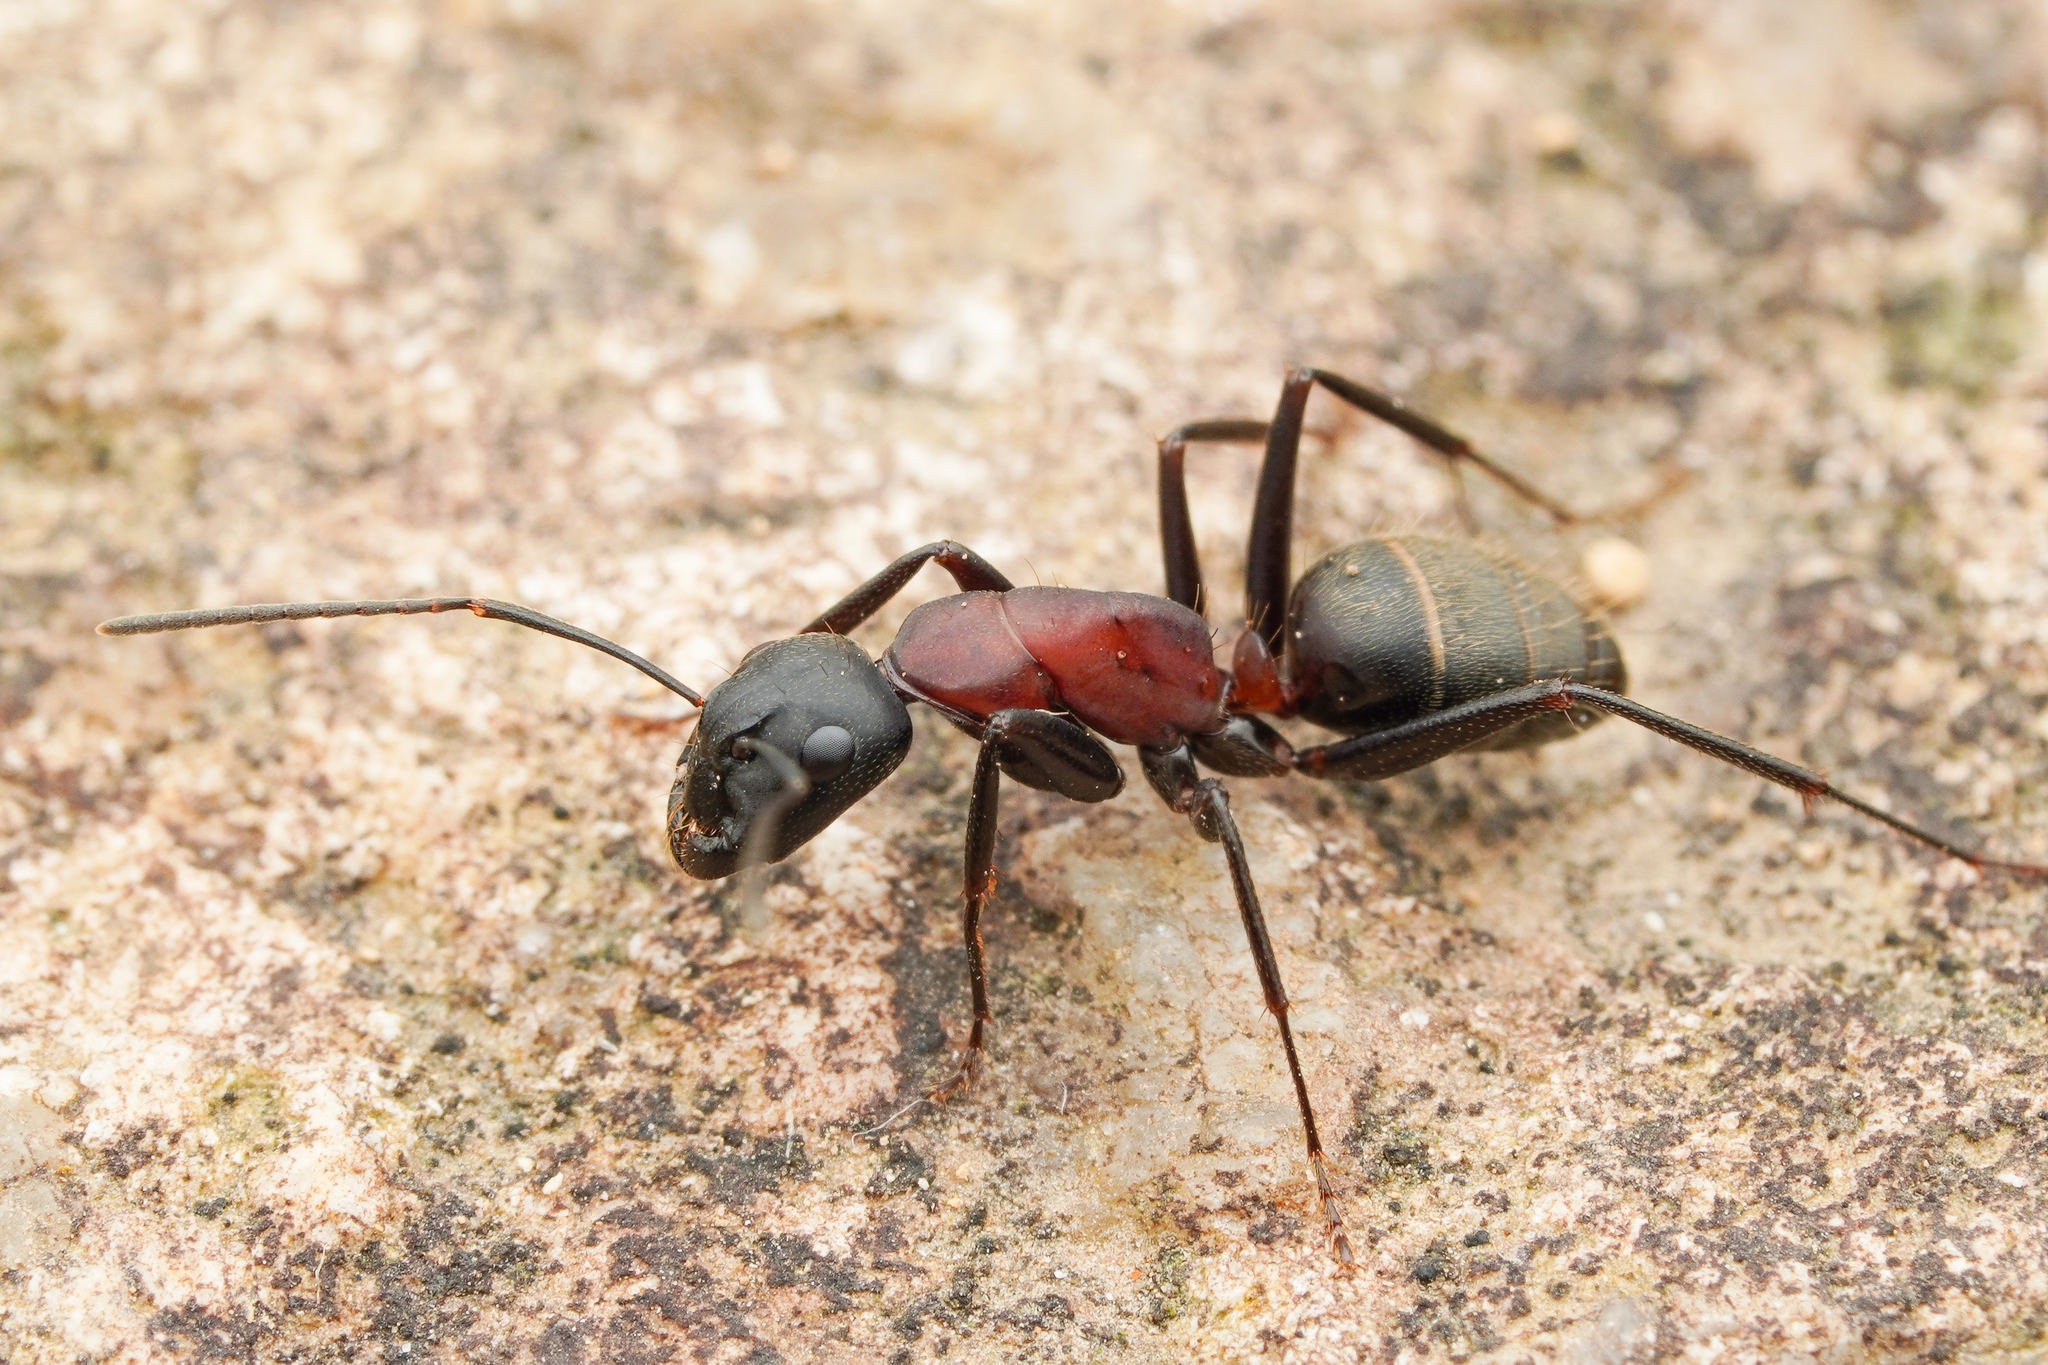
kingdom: Animalia
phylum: Arthropoda
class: Insecta
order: Hymenoptera
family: Formicidae
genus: Camponotus
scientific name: Camponotus atrox
